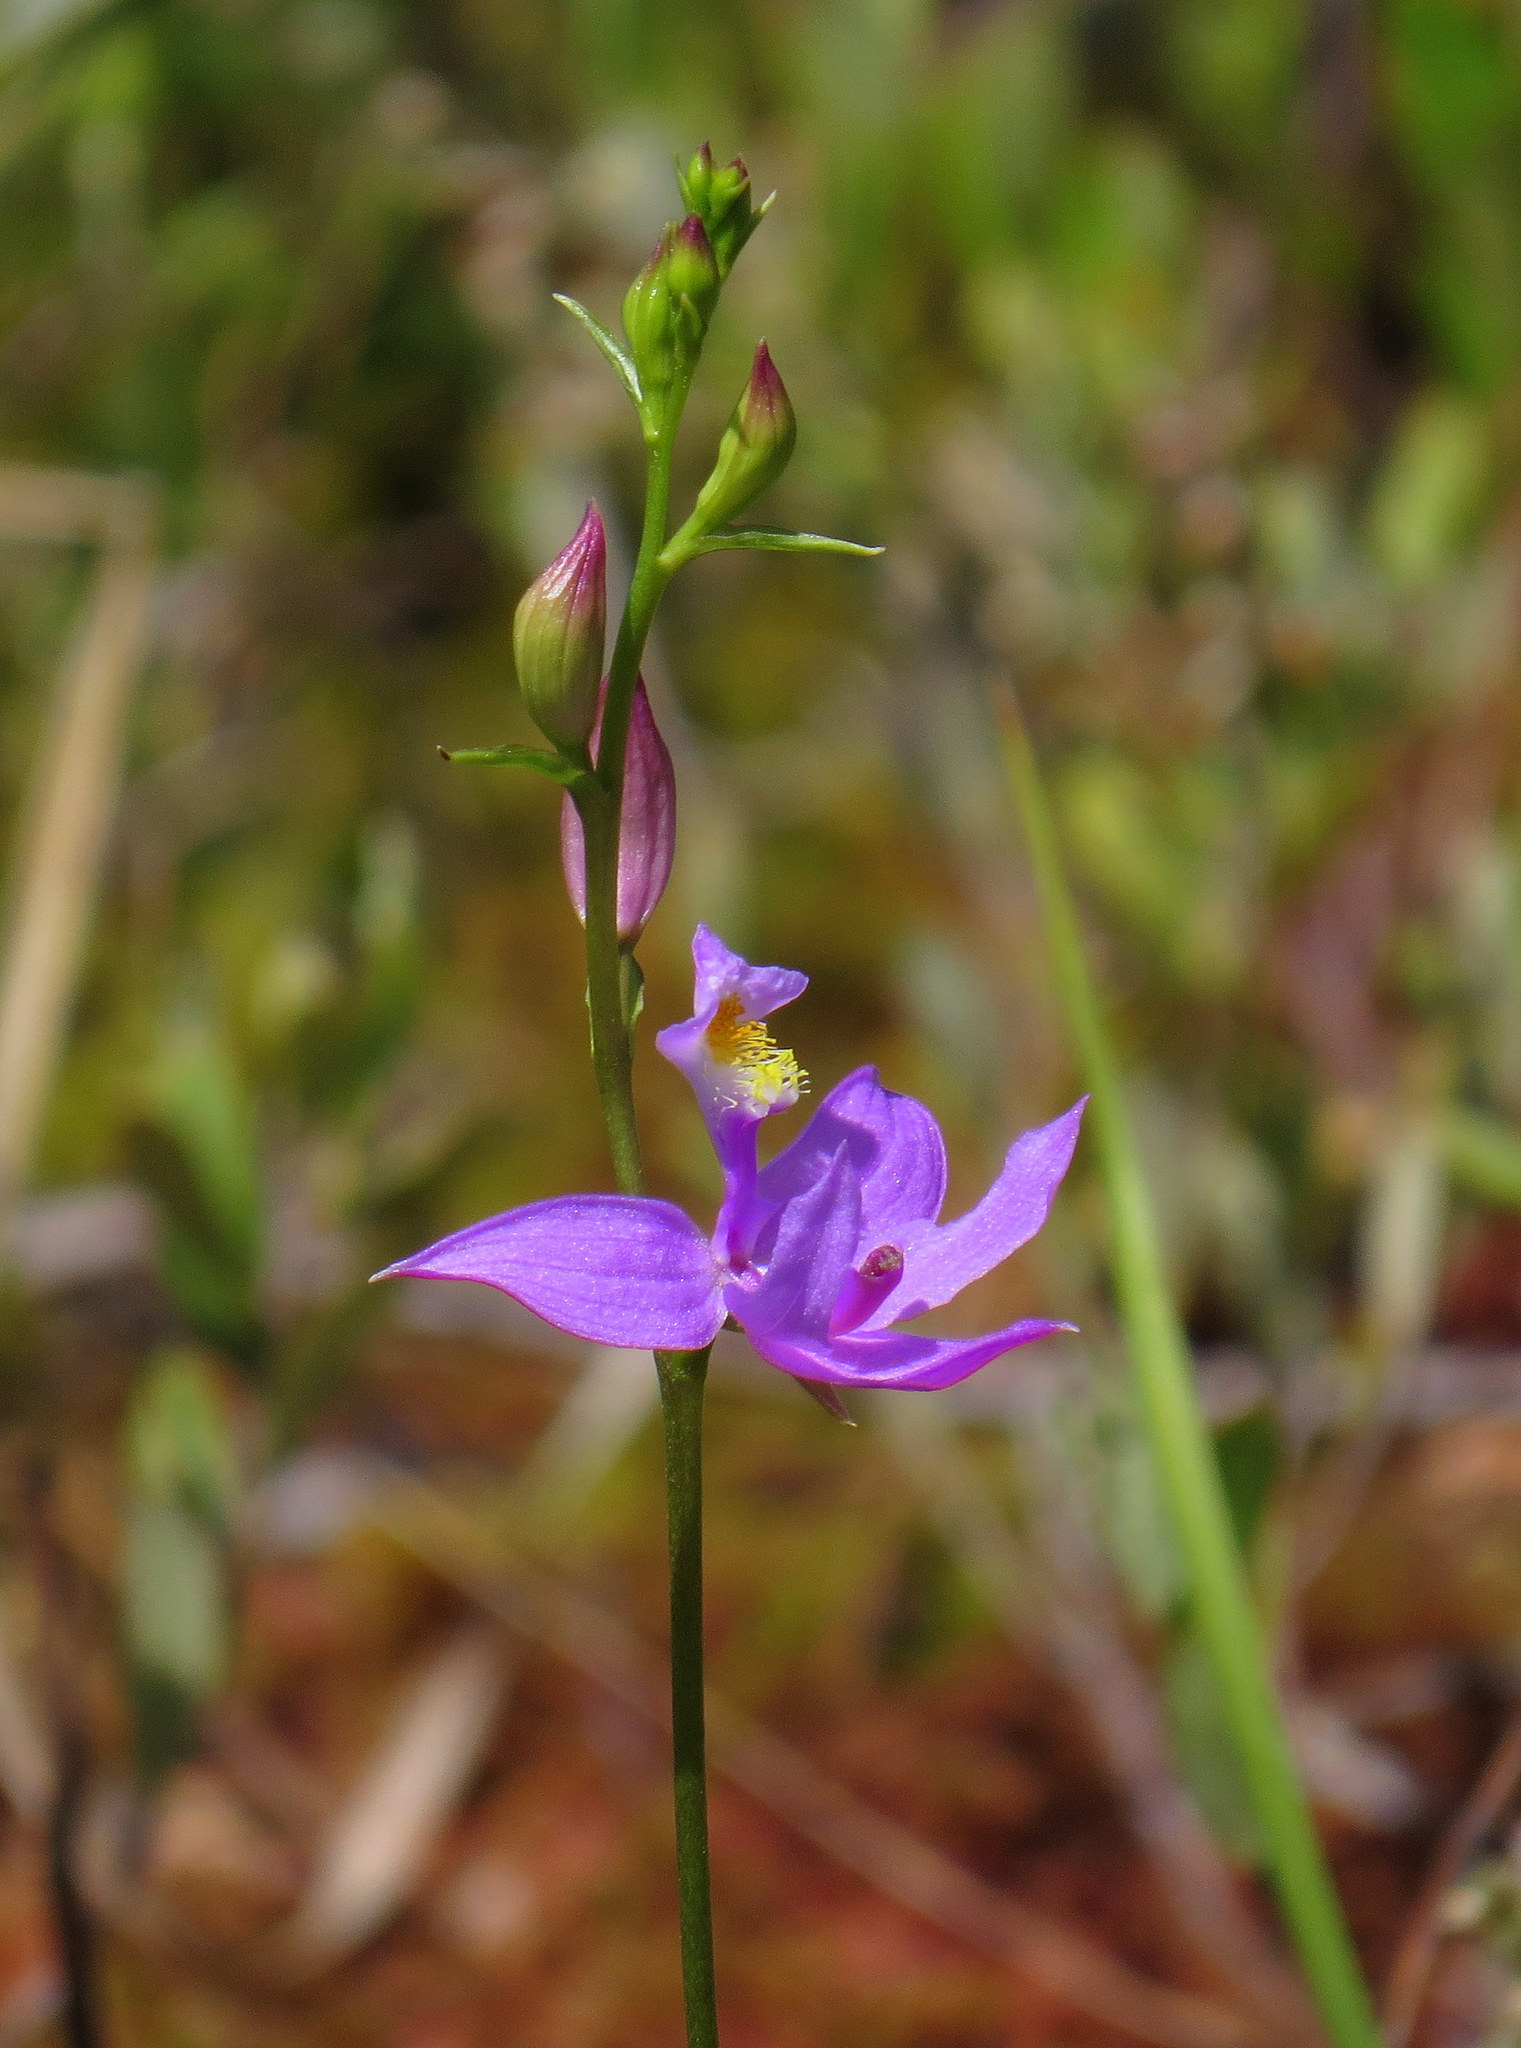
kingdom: Plantae
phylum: Tracheophyta
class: Liliopsida
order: Asparagales
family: Orchidaceae
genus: Calopogon
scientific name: Calopogon tuberosus
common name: Grass-pink
